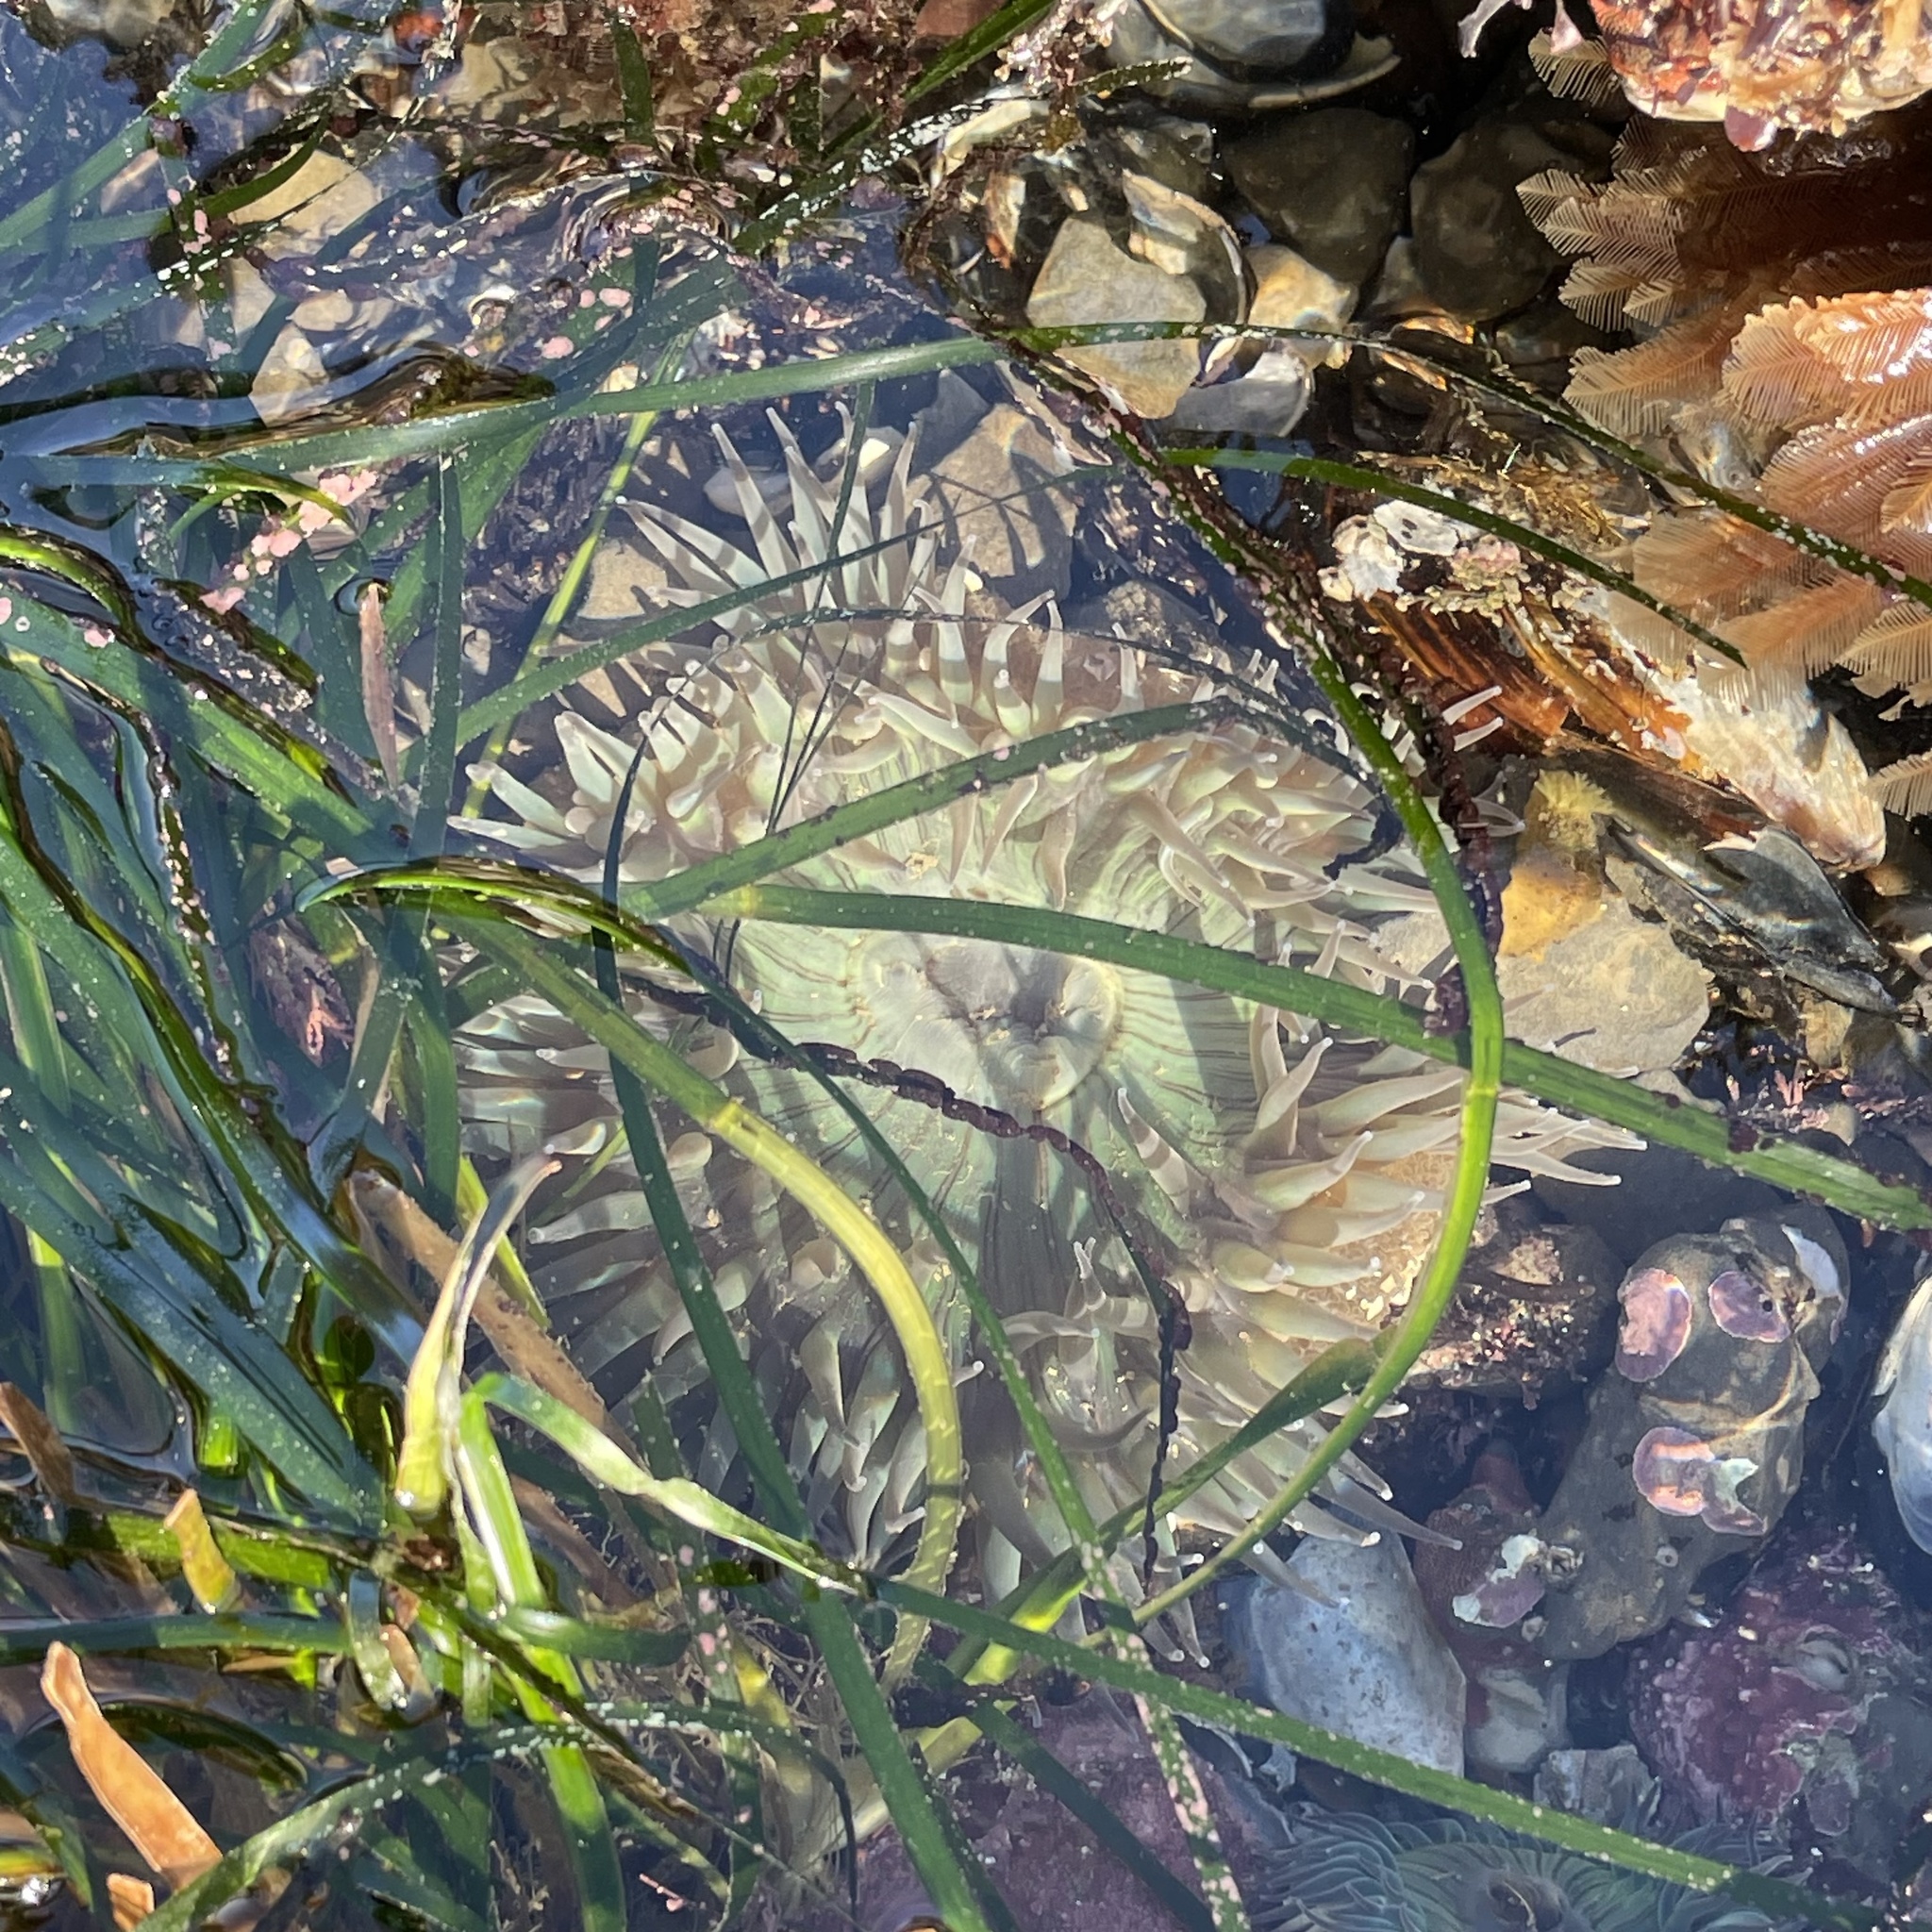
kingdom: Animalia
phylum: Cnidaria
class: Anthozoa
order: Actiniaria
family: Actiniidae
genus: Anthopleura
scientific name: Anthopleura sola
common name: Sun anemone
